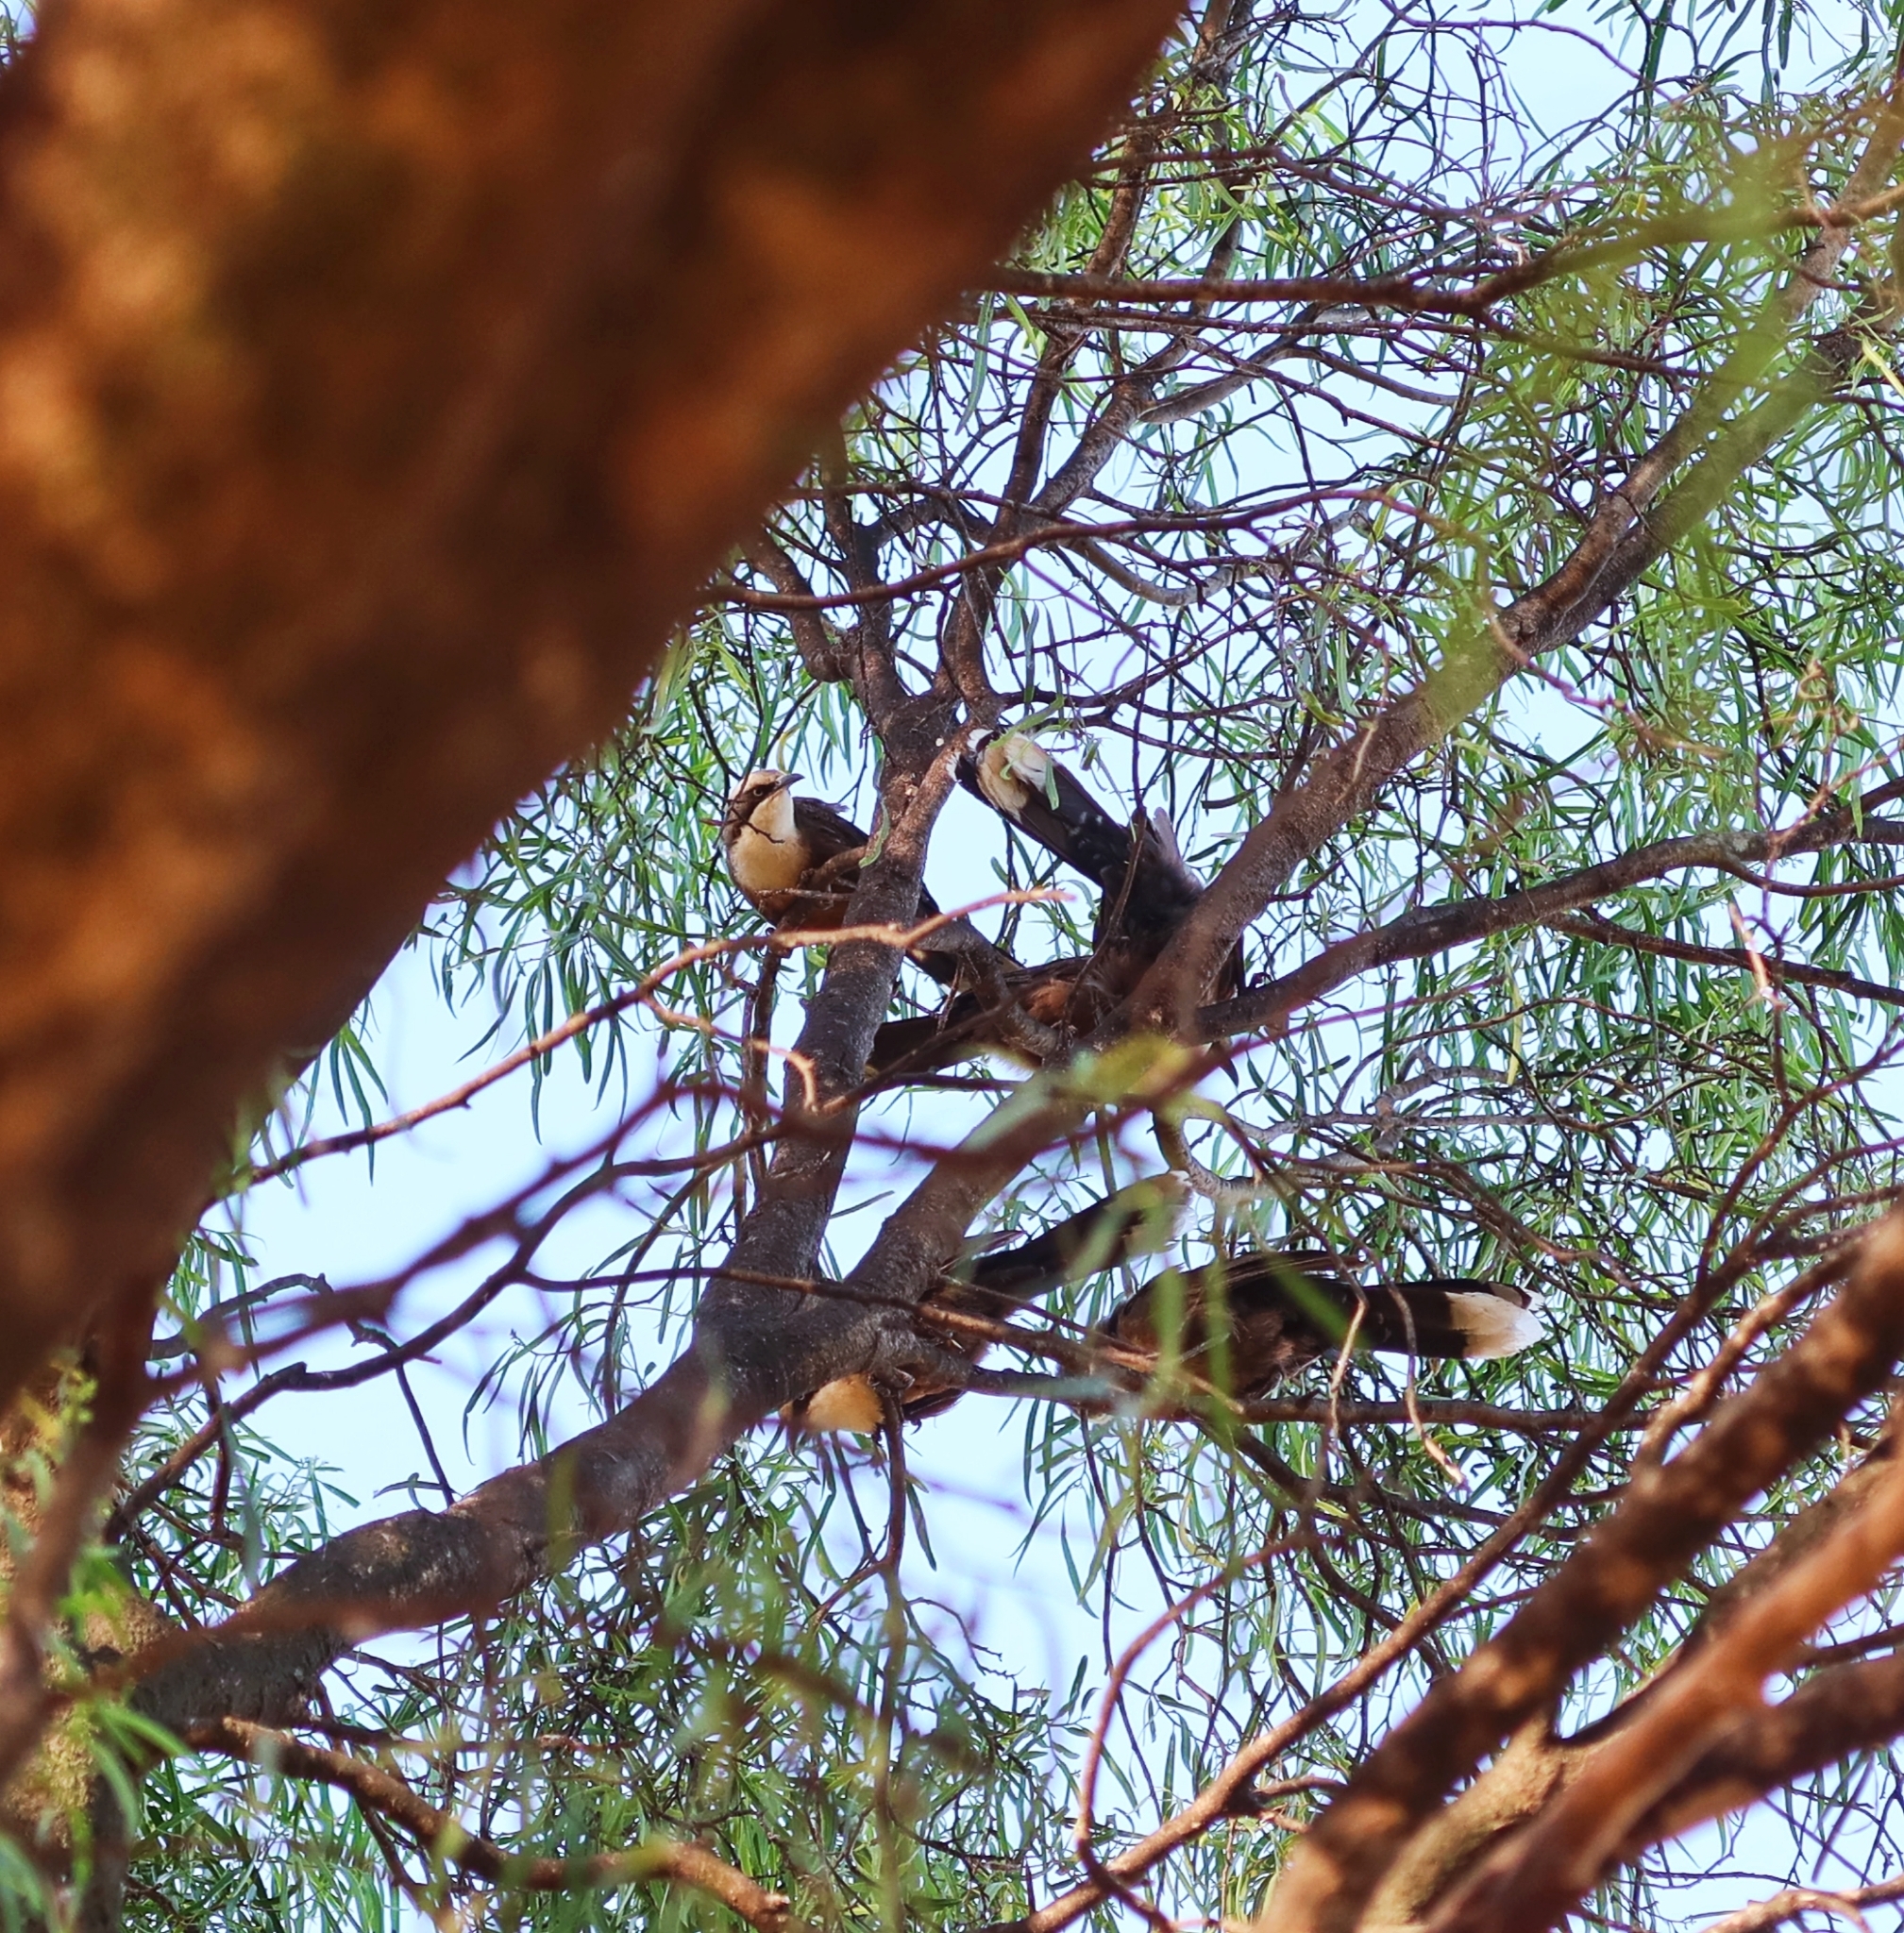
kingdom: Animalia
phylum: Chordata
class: Aves
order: Passeriformes
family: Pomatostomidae
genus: Pomatostomus
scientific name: Pomatostomus temporalis
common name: Grey-crowned babbler
